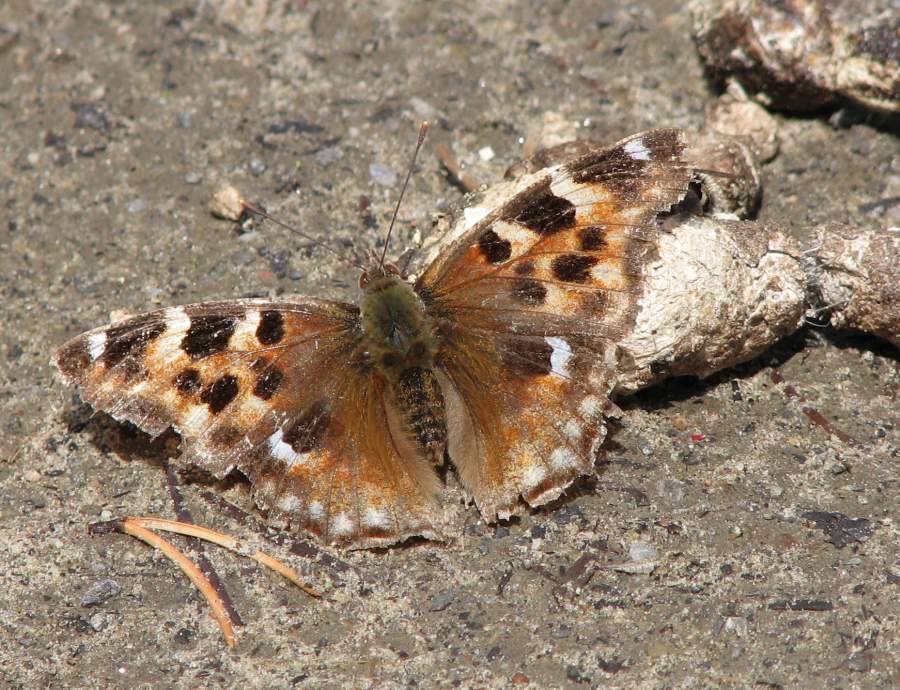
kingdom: Animalia
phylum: Arthropoda
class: Insecta
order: Lepidoptera
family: Nymphalidae
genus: Polygonia
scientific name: Polygonia vaualbum
